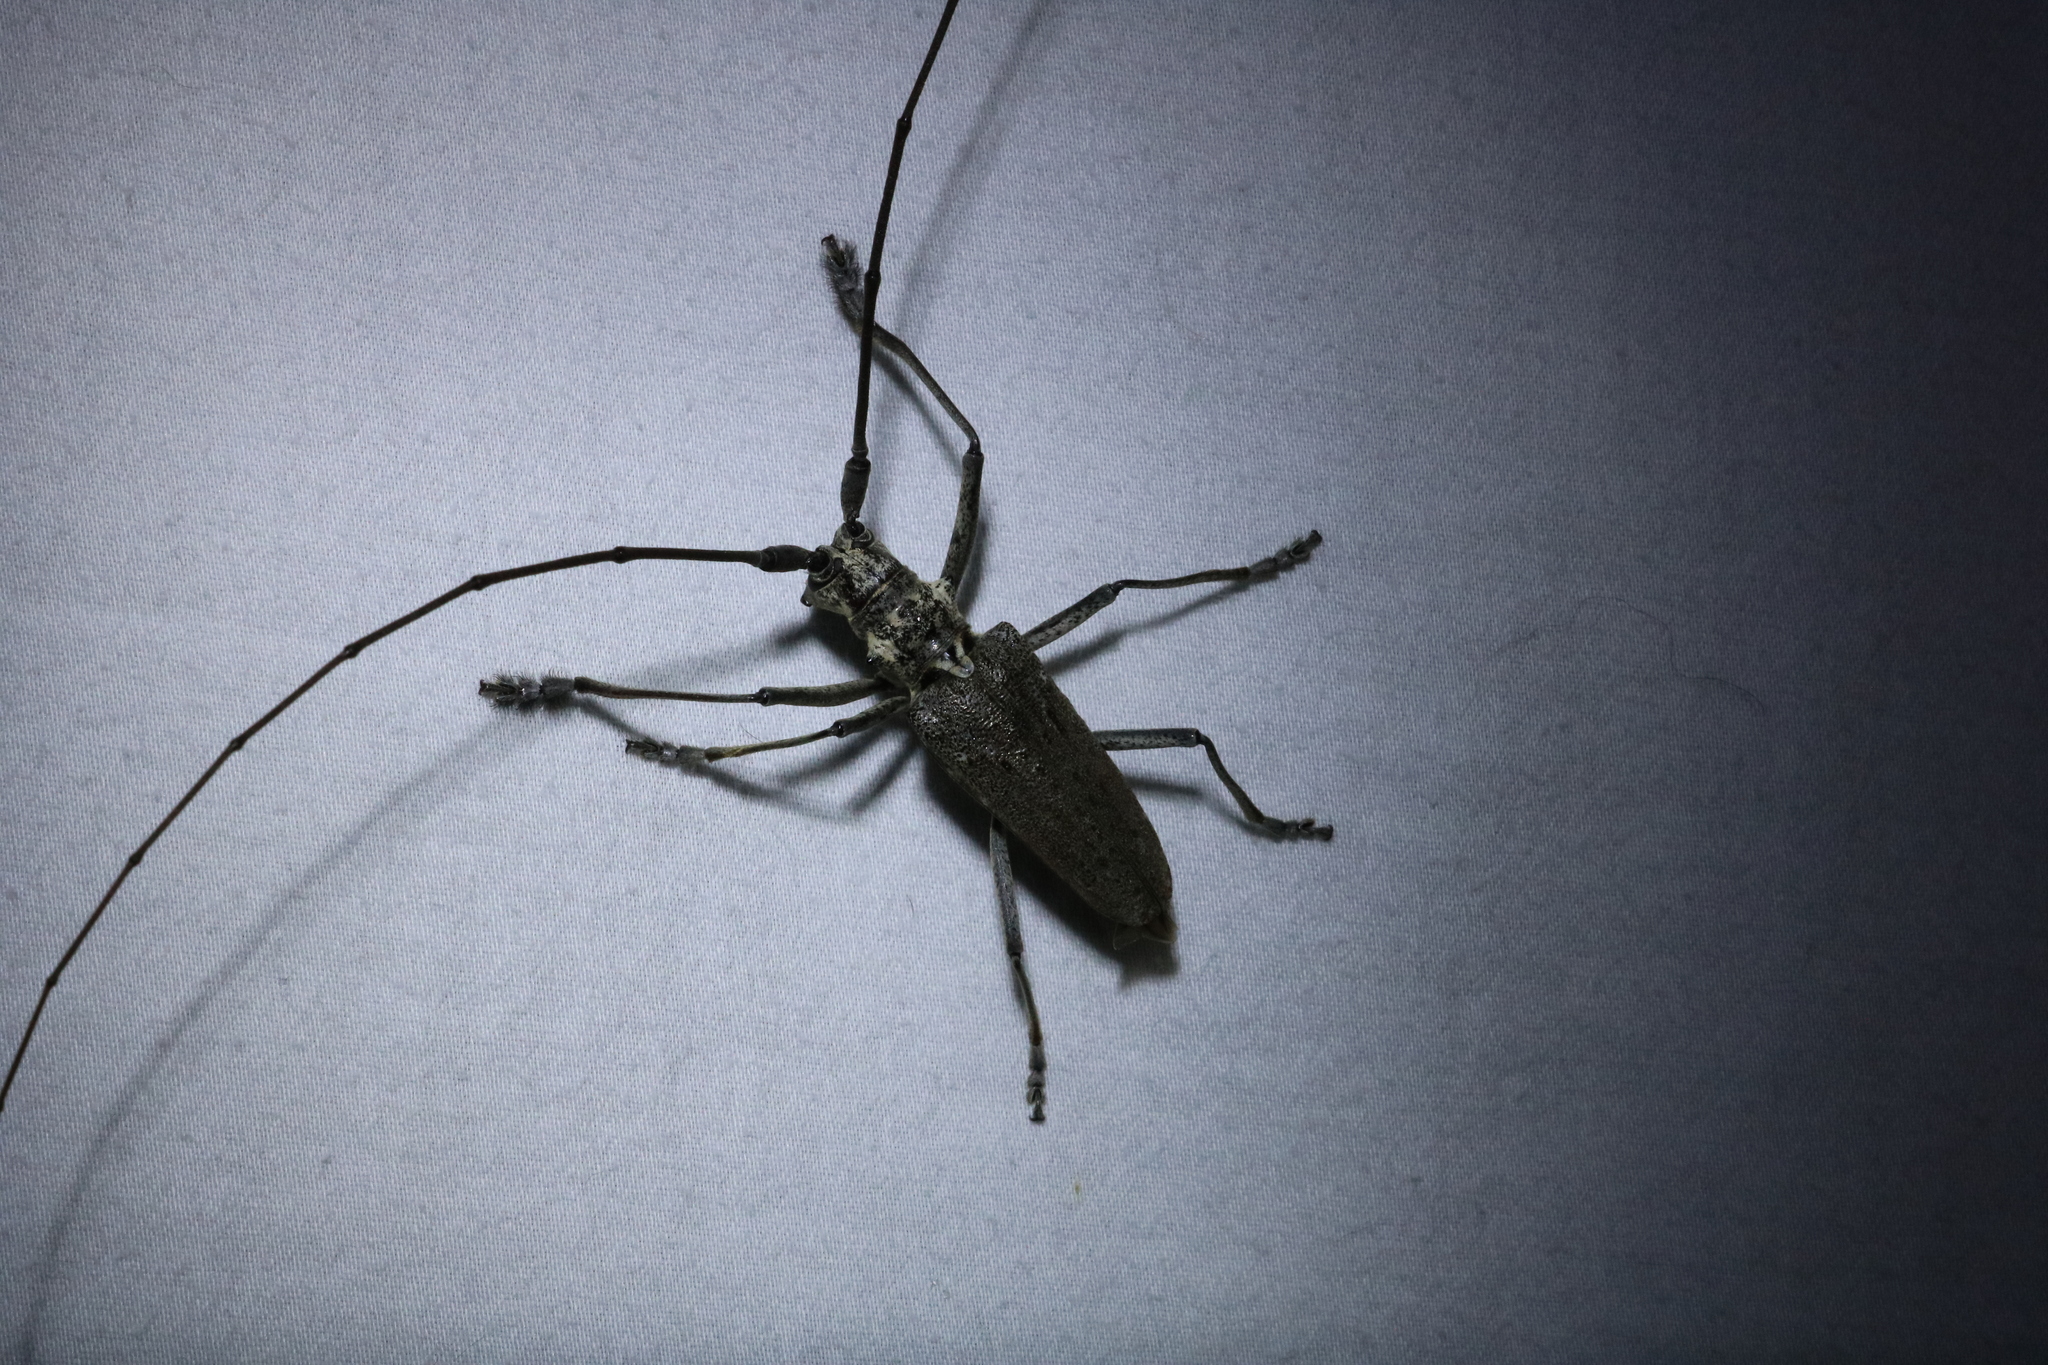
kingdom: Animalia
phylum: Arthropoda
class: Insecta
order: Coleoptera
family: Cerambycidae
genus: Monochamus
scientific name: Monochamus notatus
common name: Northeastern pine sawyer beetle
